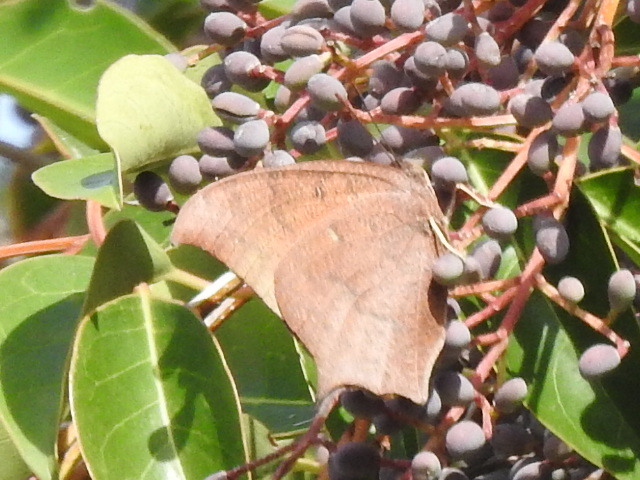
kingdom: Animalia
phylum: Arthropoda
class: Insecta
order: Lepidoptera
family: Nymphalidae
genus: Anaea
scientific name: Anaea andria
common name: Goatweed leafwing
